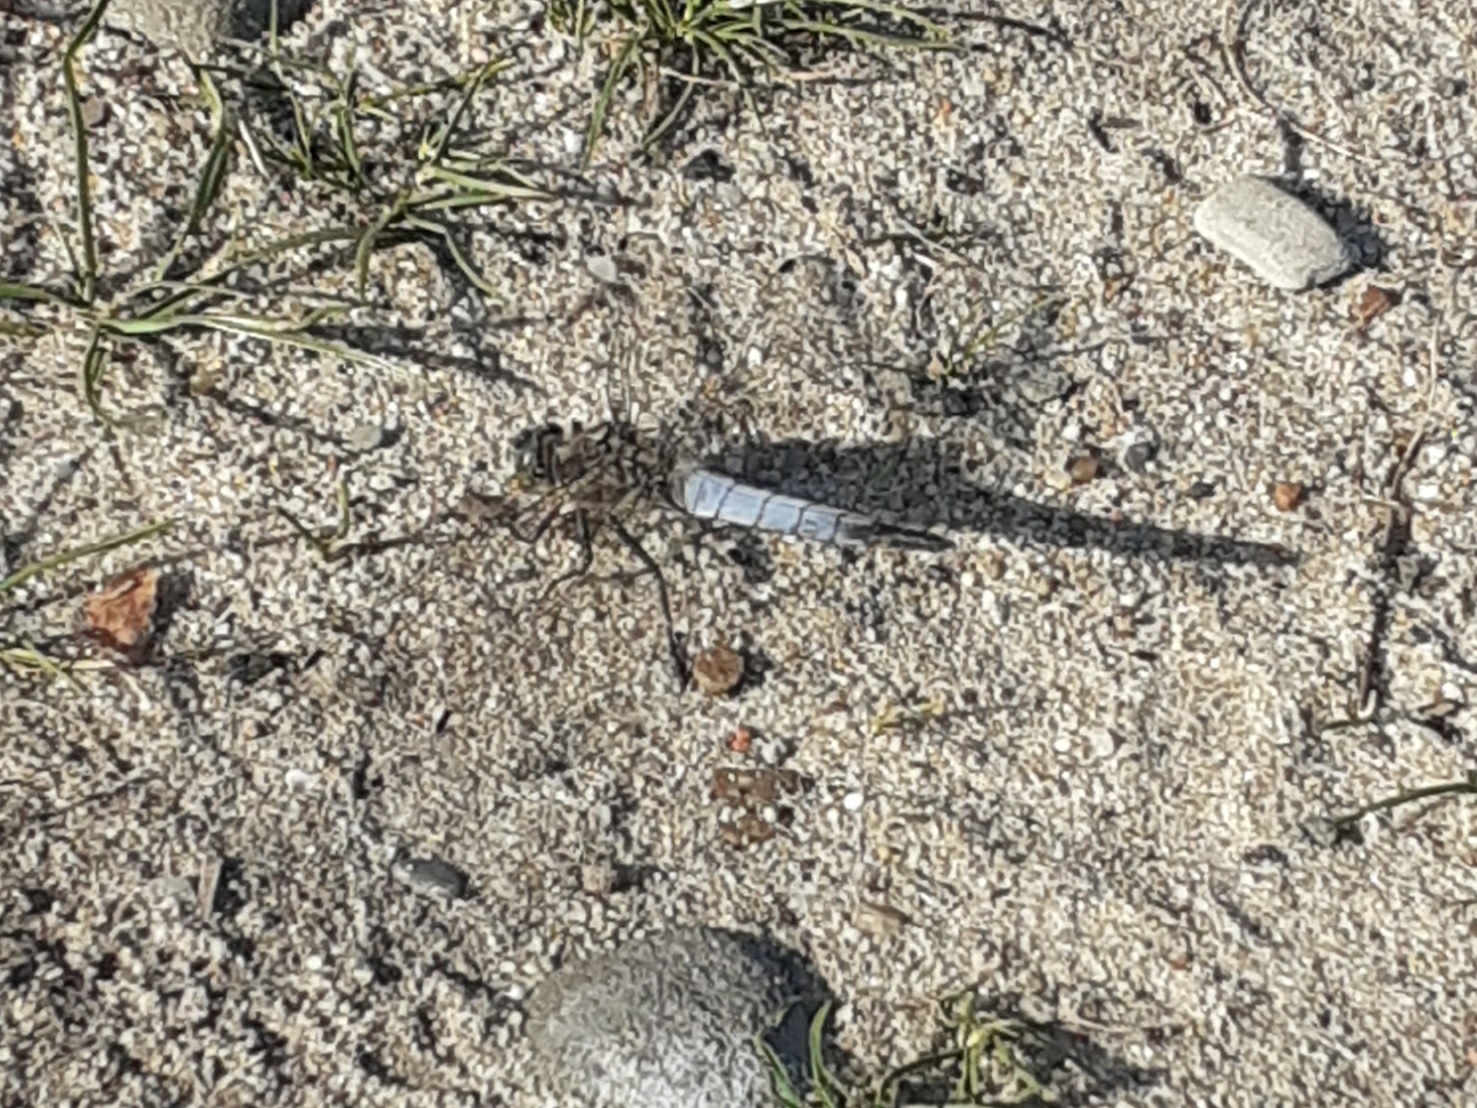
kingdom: Animalia
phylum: Arthropoda
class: Insecta
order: Odonata
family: Libellulidae
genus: Orthetrum
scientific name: Orthetrum cancellatum
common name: Black-tailed skimmer
